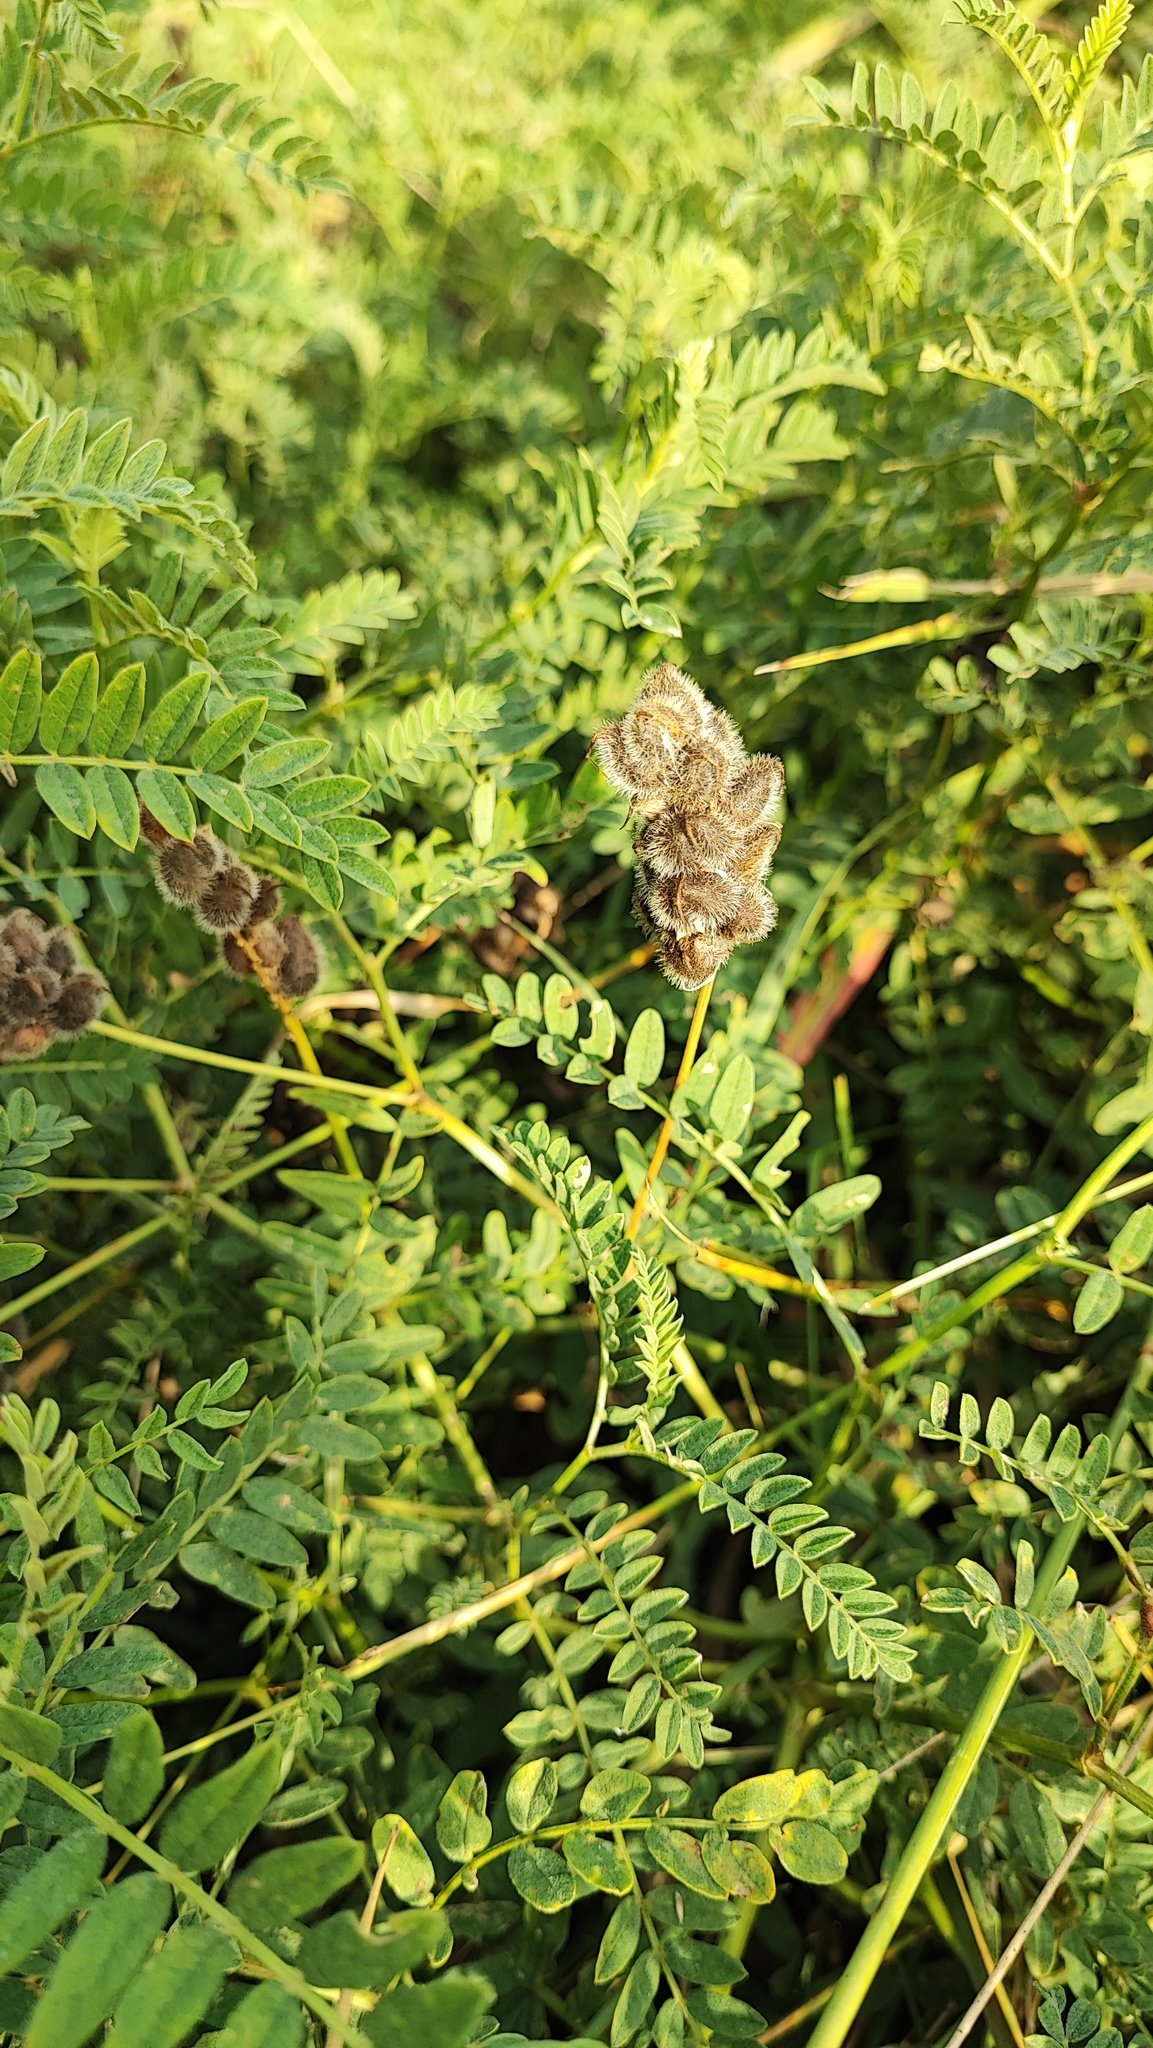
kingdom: Plantae
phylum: Tracheophyta
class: Magnoliopsida
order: Fabales
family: Fabaceae
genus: Astragalus
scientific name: Astragalus cicer
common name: Chick-pea milk-vetch
